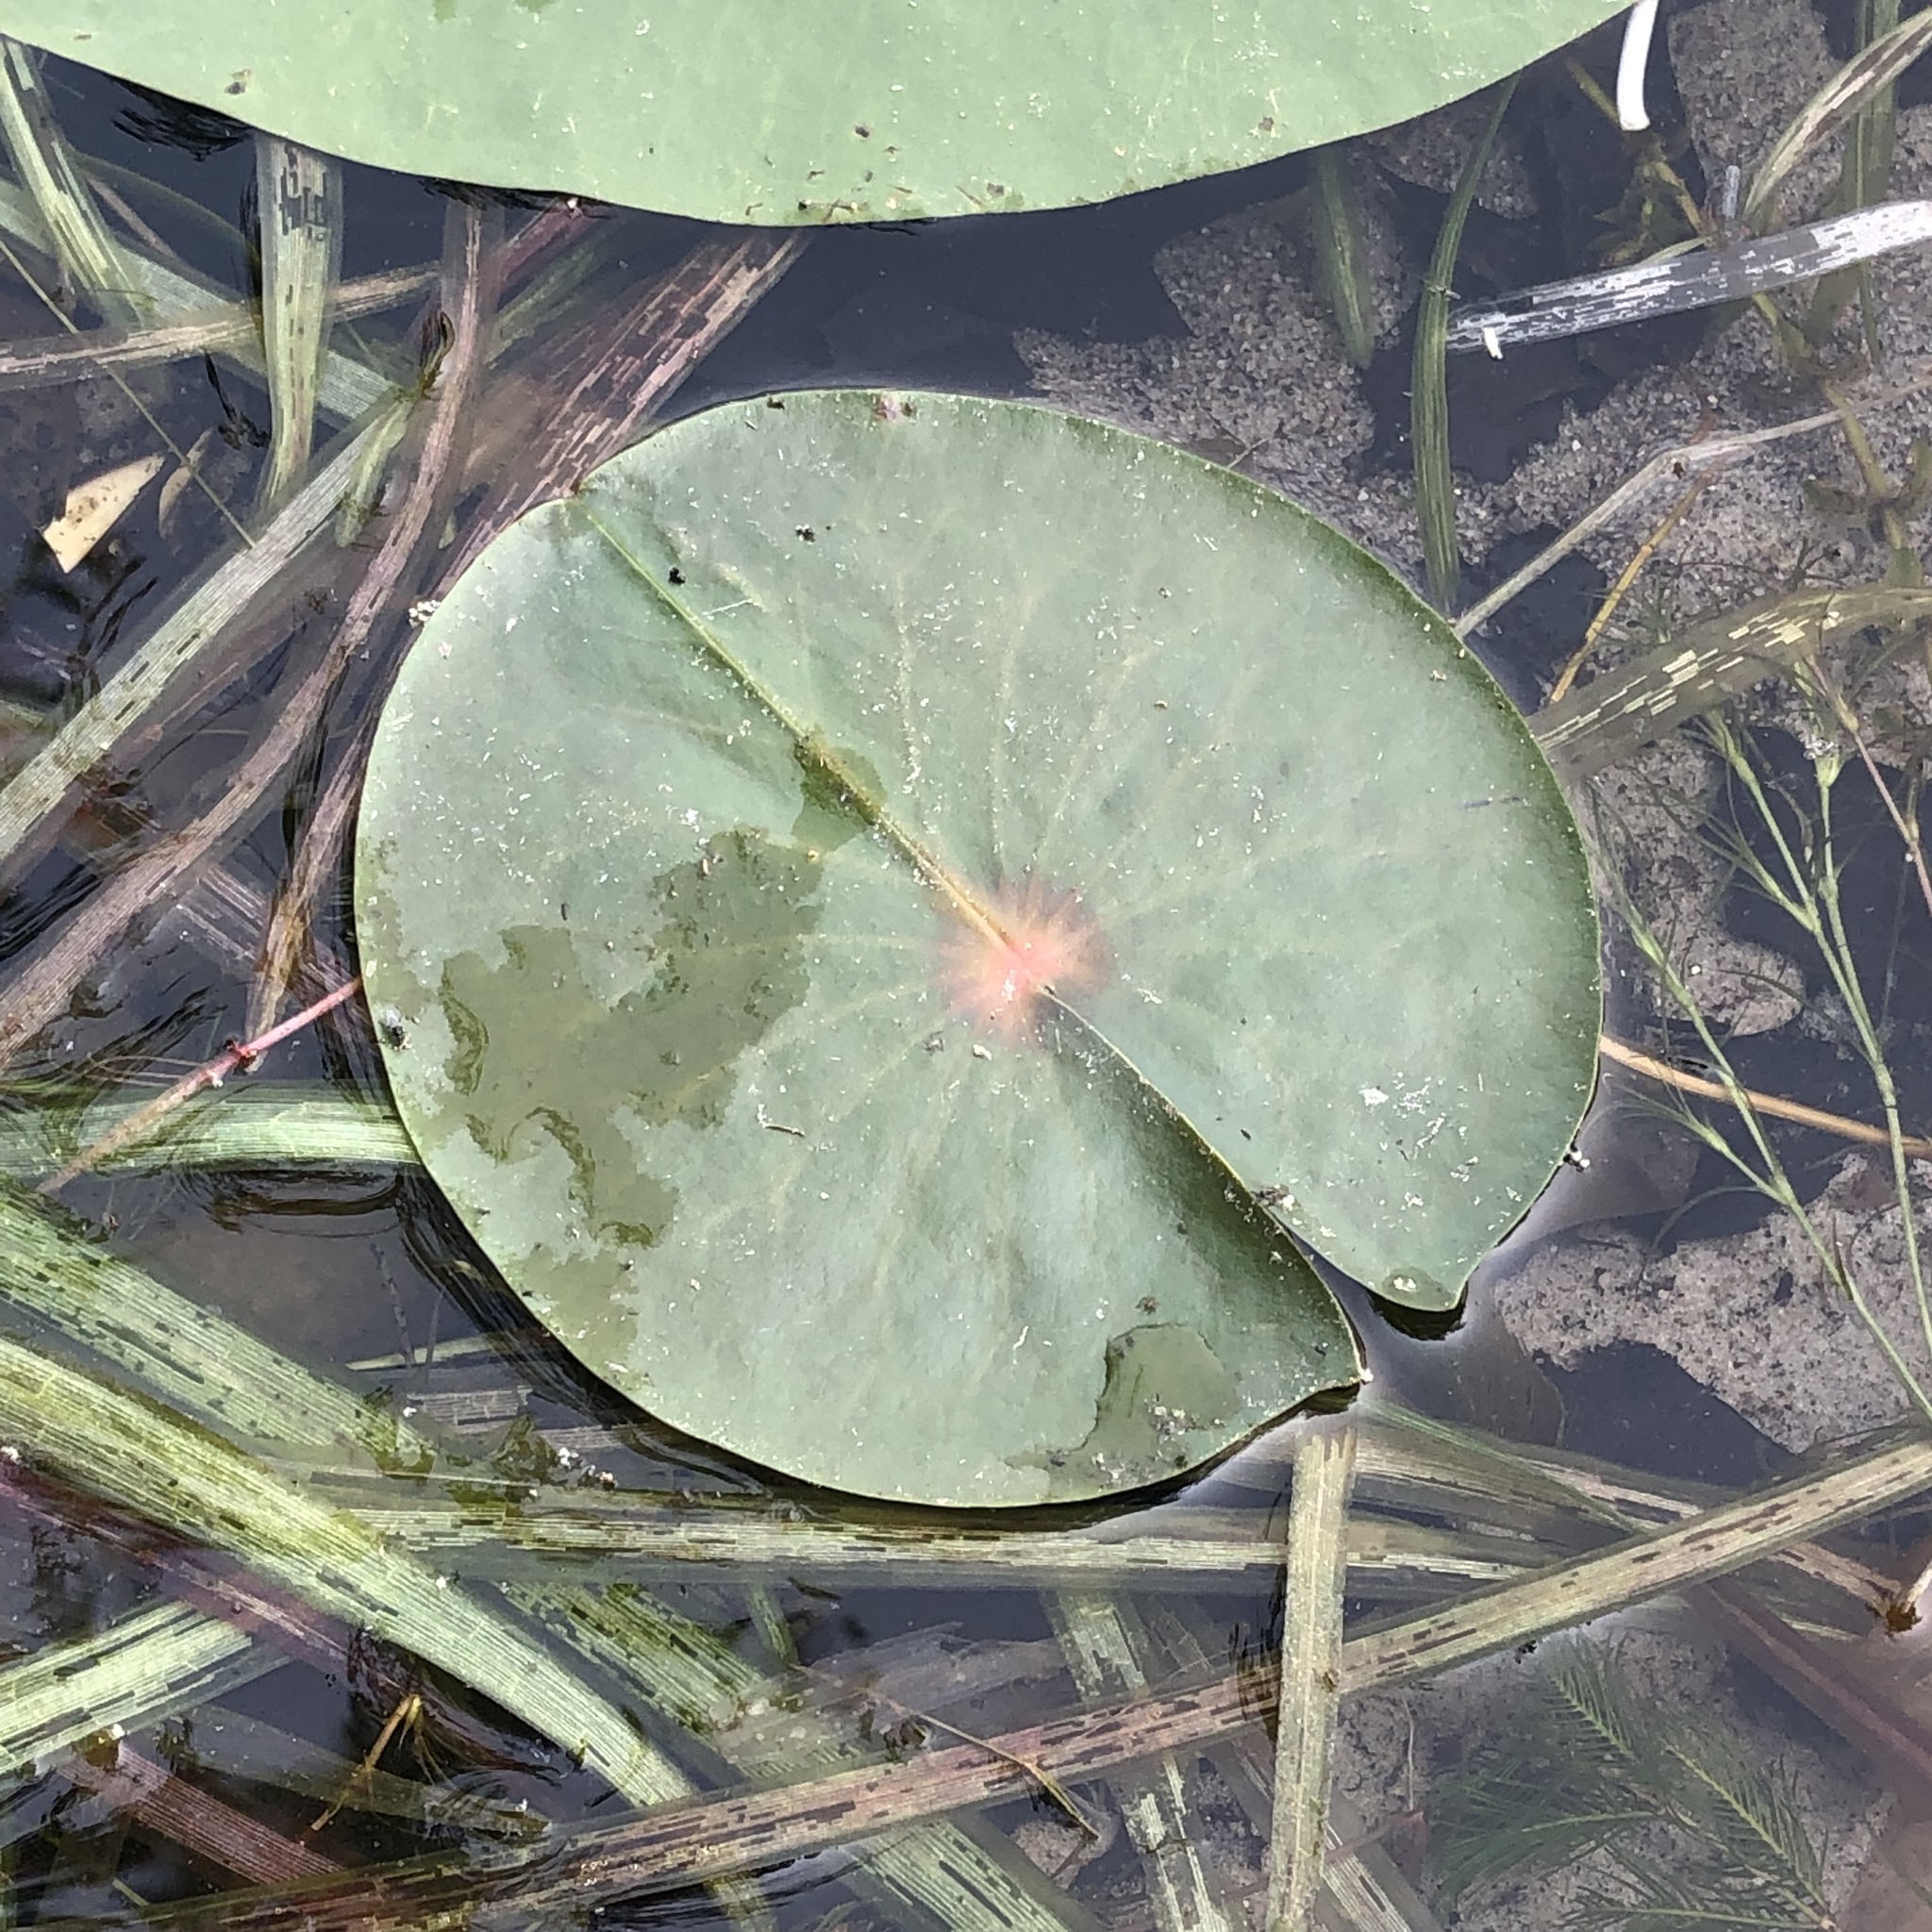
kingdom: Plantae
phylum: Tracheophyta
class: Magnoliopsida
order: Nymphaeales
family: Nymphaeaceae
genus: Nymphaea
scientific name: Nymphaea odorata
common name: Fragrant water-lily
